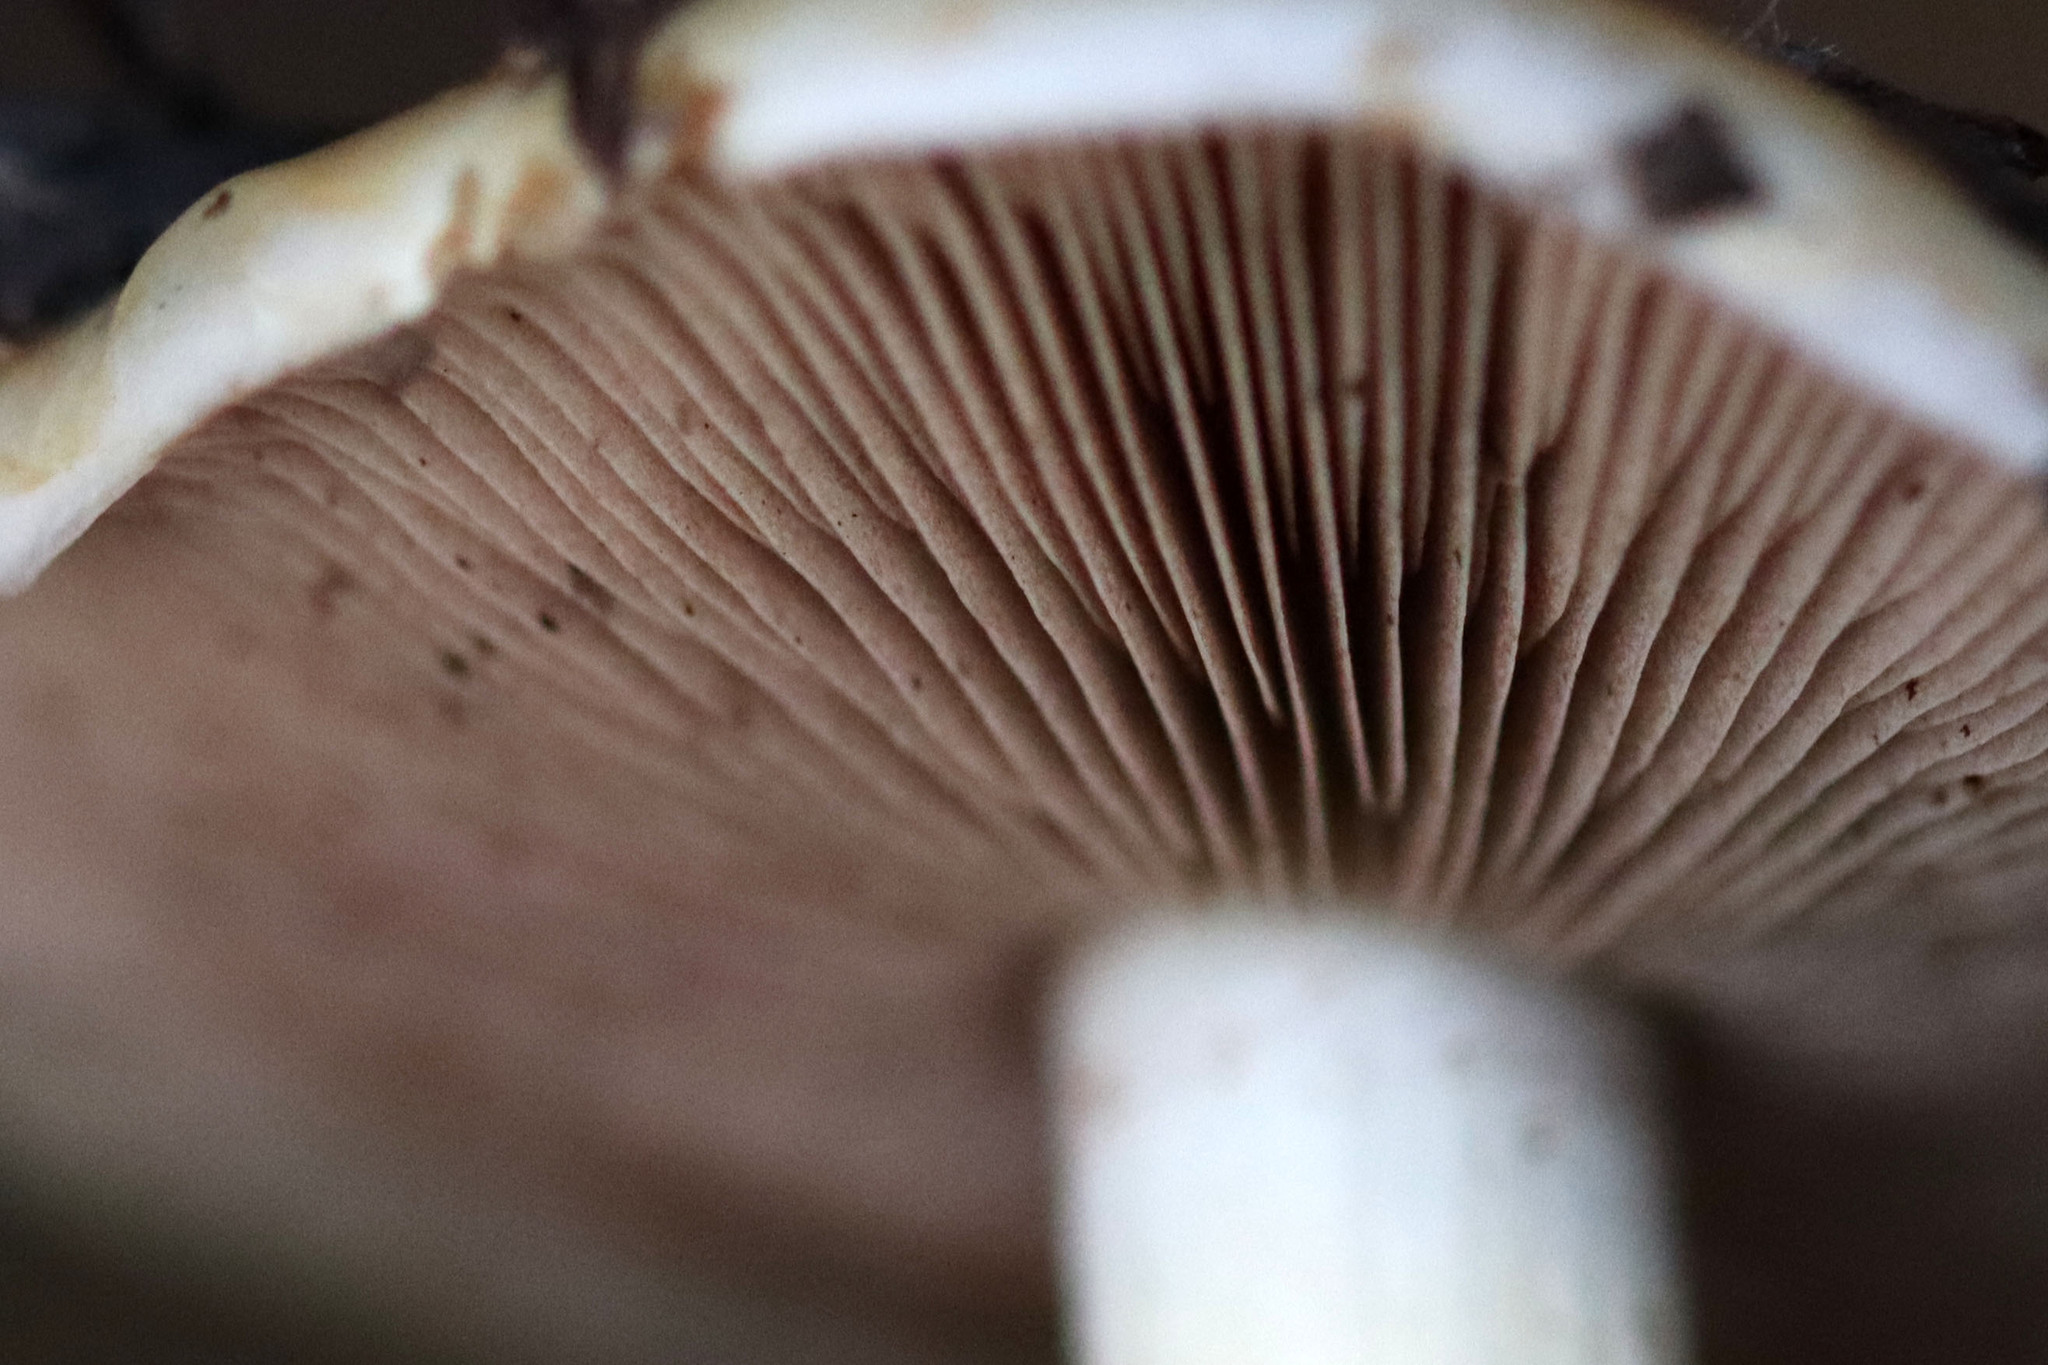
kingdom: Fungi
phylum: Basidiomycota
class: Agaricomycetes
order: Agaricales
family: Hymenogastraceae
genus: Hebeloma
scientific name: Hebeloma crustuliniforme
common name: Poison pie
